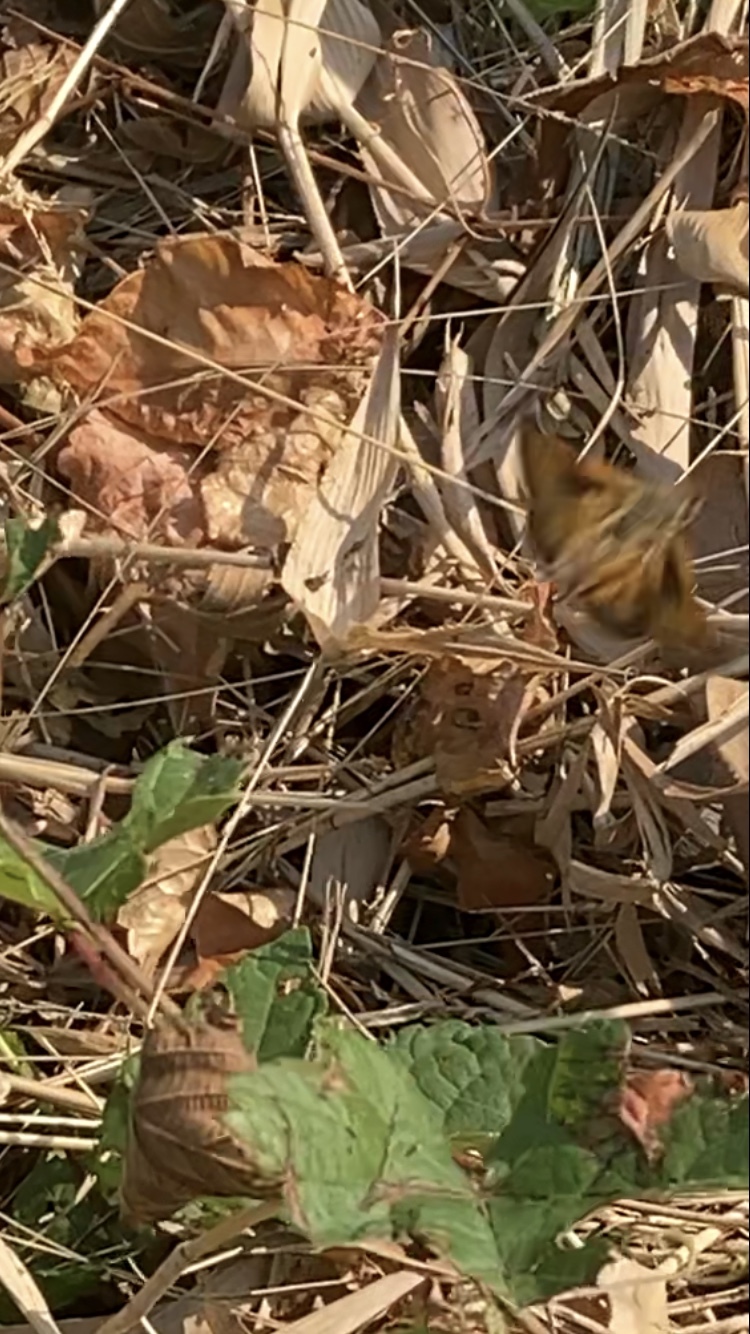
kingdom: Animalia
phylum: Arthropoda
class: Insecta
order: Lepidoptera
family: Hesperiidae
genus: Atalopedes
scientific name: Atalopedes
